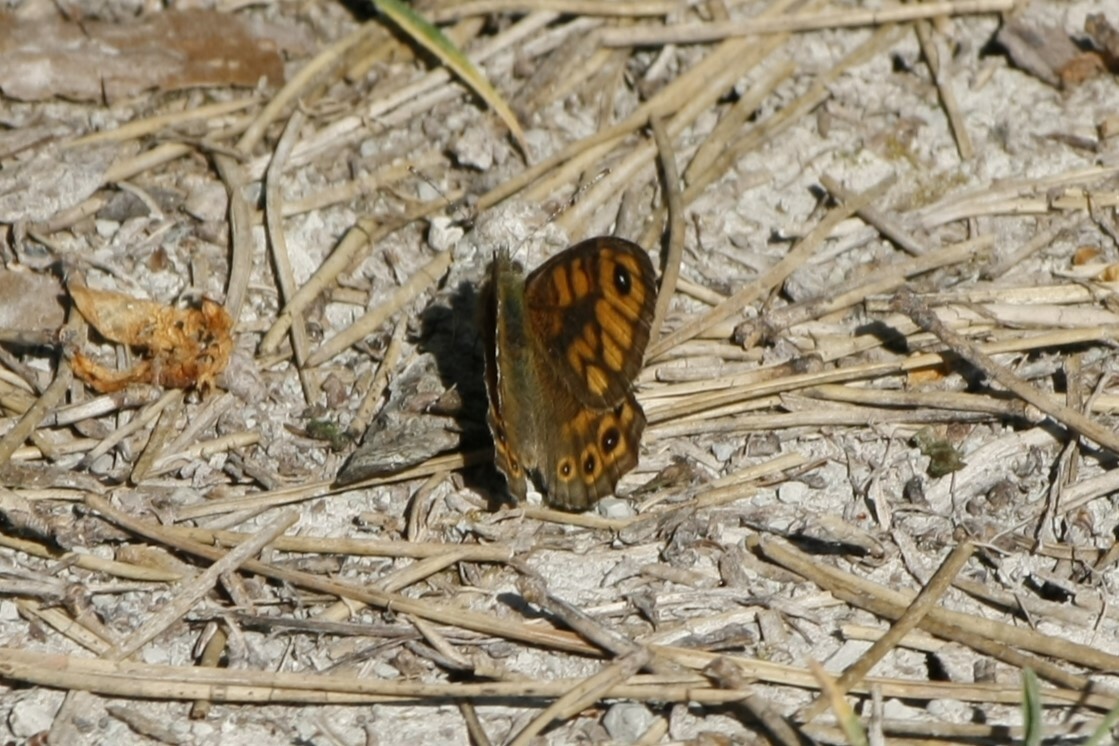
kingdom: Animalia
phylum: Arthropoda
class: Insecta
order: Lepidoptera
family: Nymphalidae
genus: Pararge
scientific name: Pararge Lasiommata megera
